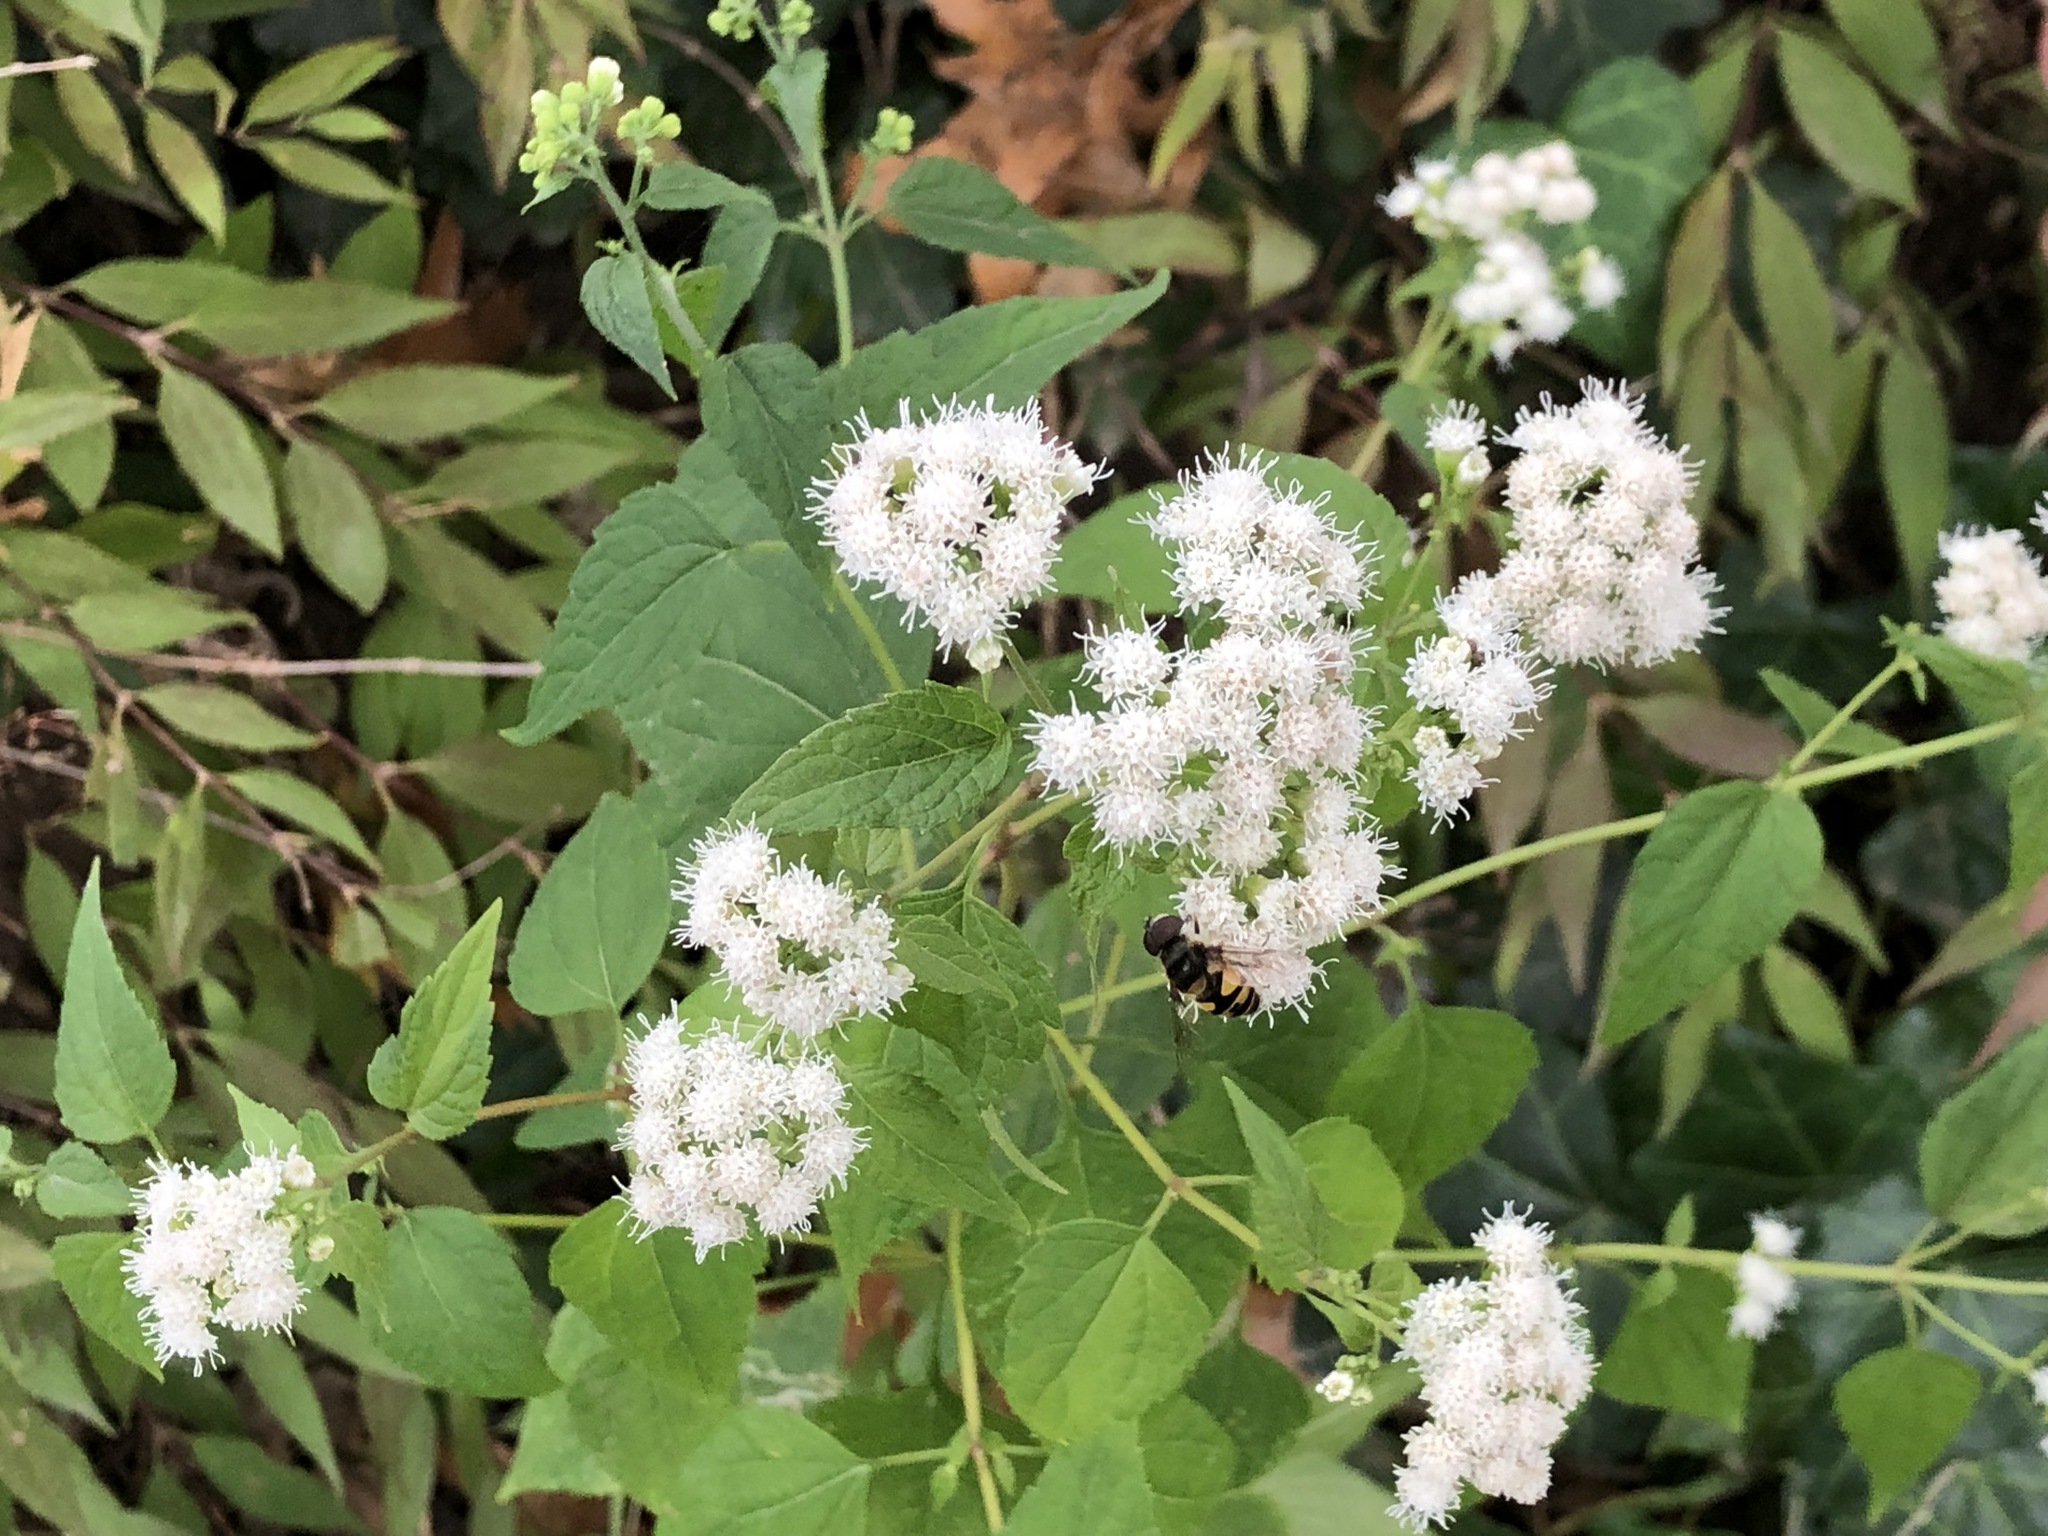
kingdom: Animalia
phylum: Arthropoda
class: Insecta
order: Diptera
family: Syrphidae
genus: Eristalis
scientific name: Eristalis transversa
